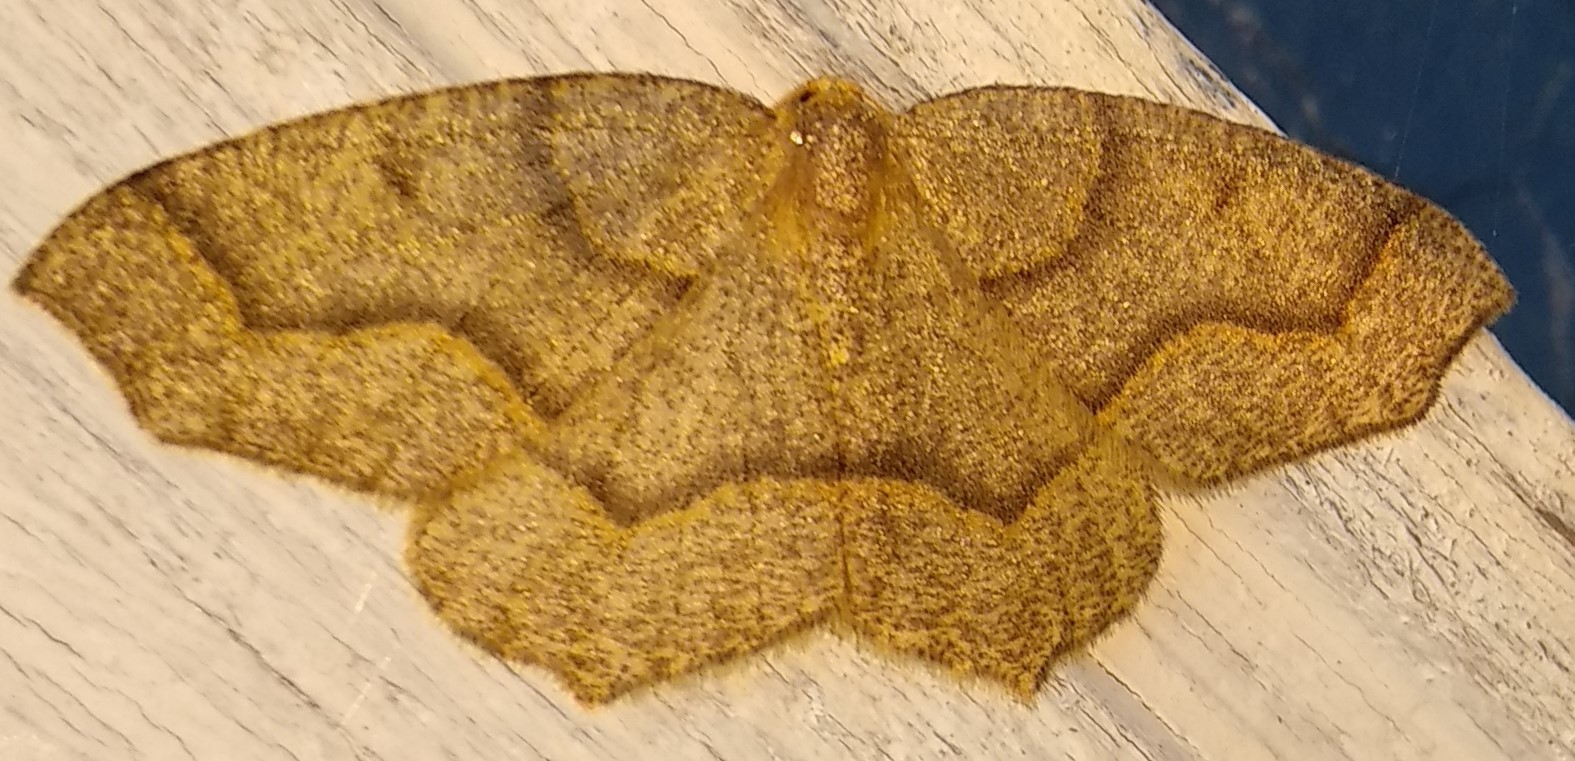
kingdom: Animalia
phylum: Arthropoda
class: Insecta
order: Lepidoptera
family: Geometridae
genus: Lambdina
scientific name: Lambdina fiscellaria
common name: Hemlock looper
